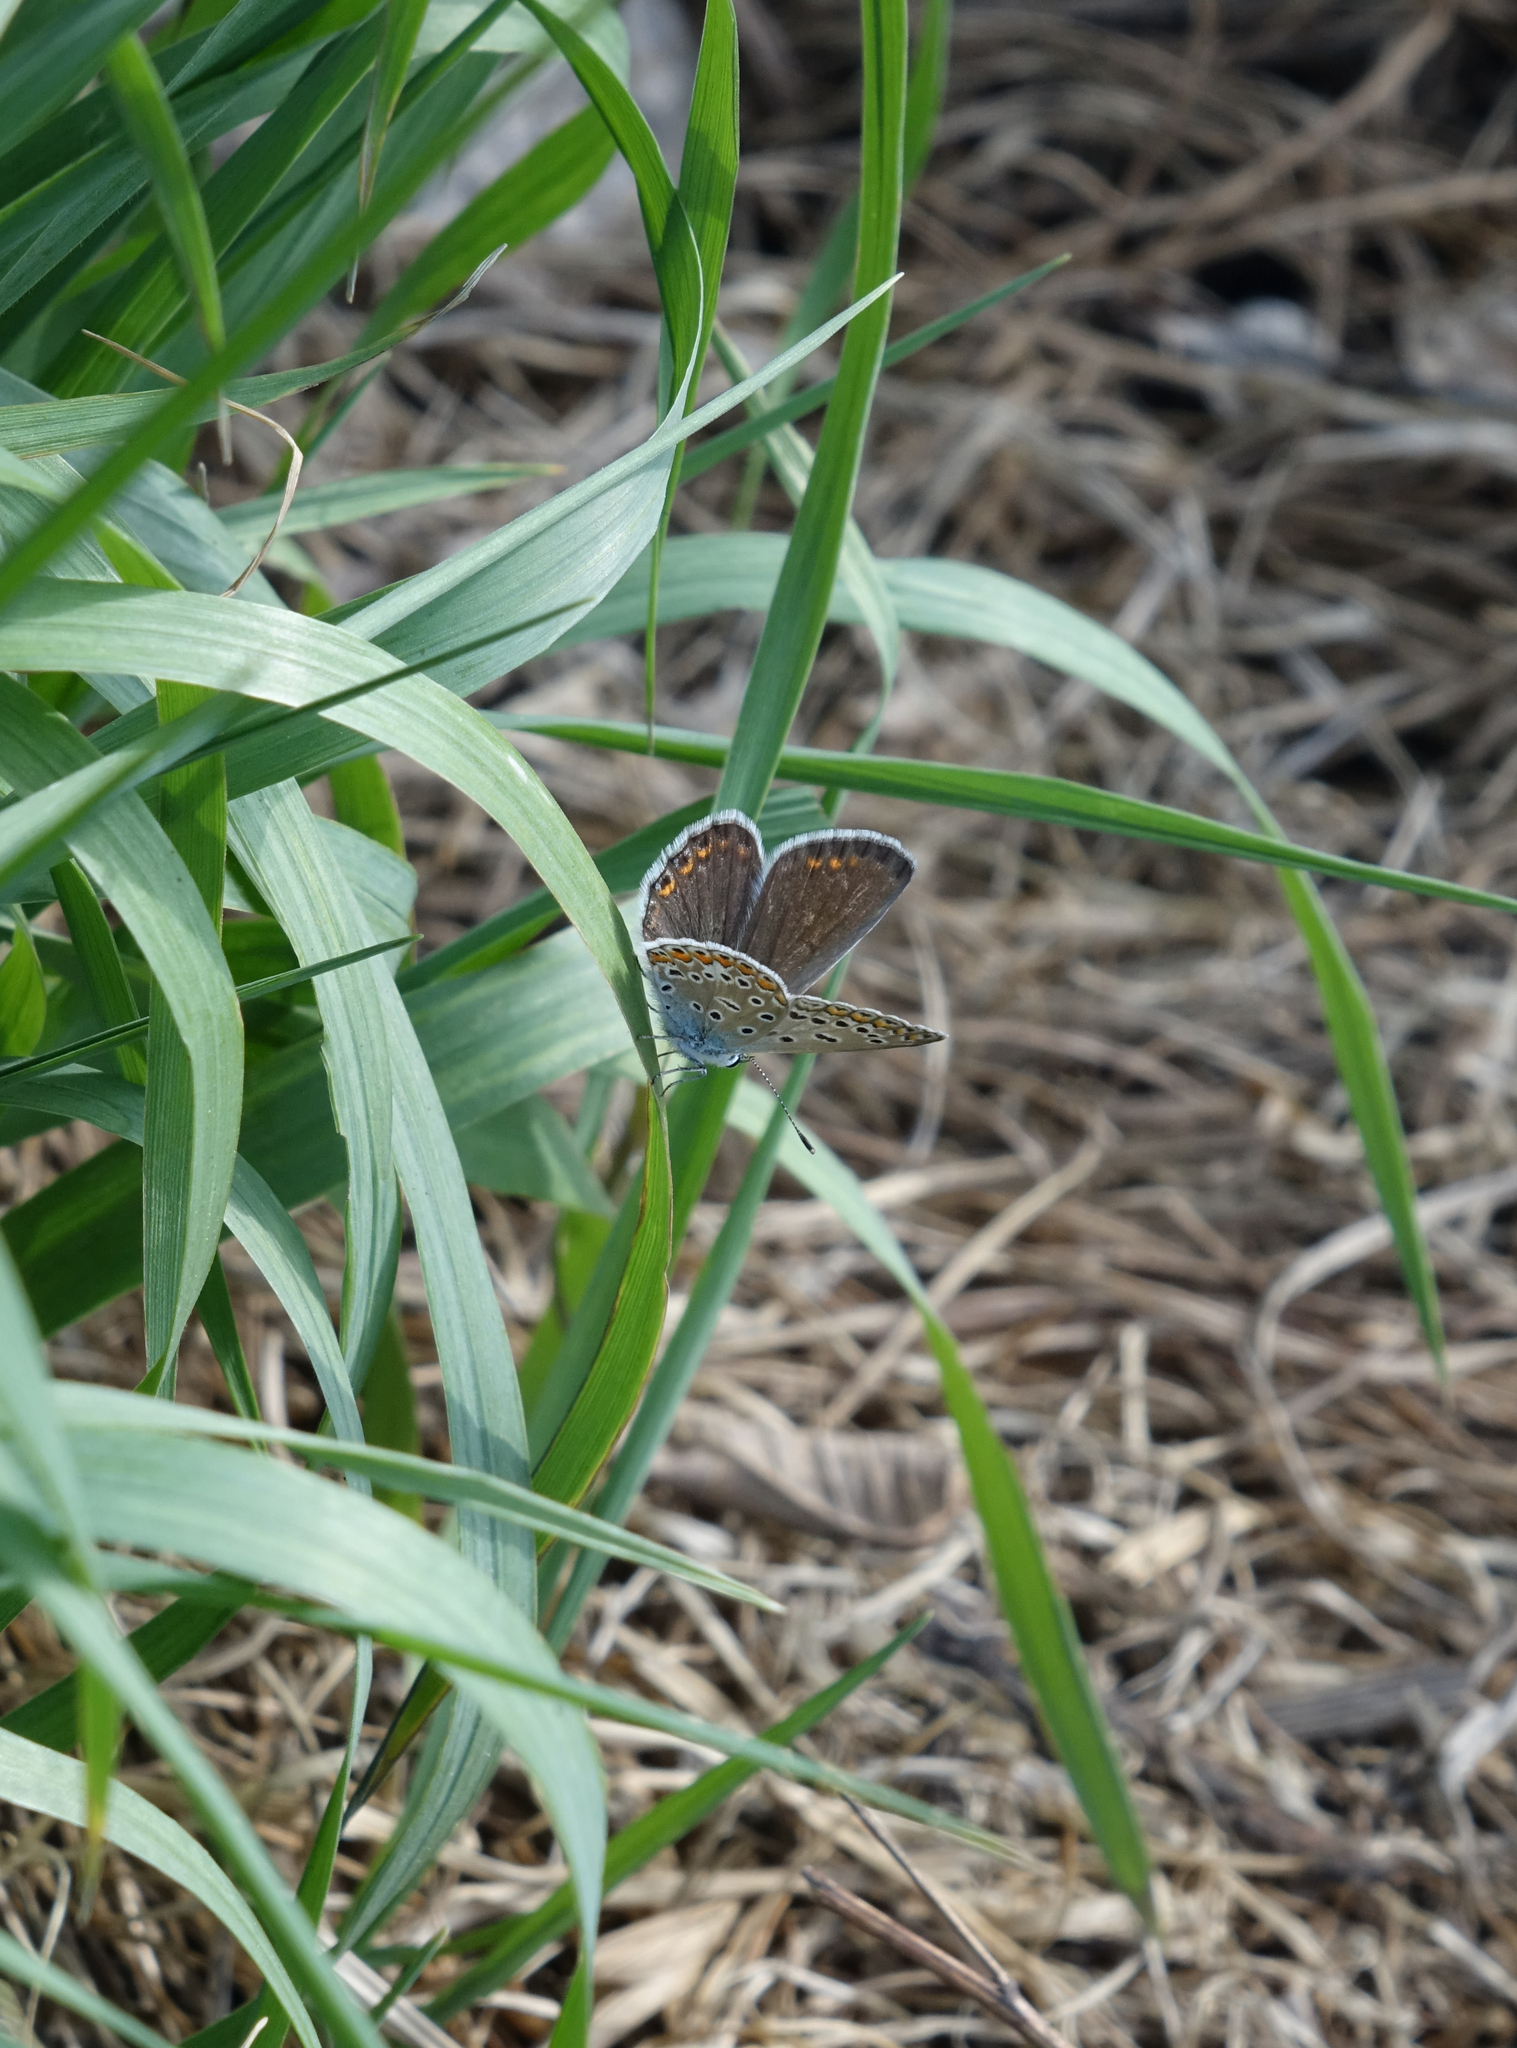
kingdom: Animalia
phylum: Arthropoda
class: Insecta
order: Lepidoptera
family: Lycaenidae
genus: Polyommatus
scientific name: Polyommatus icarus
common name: Common blue
